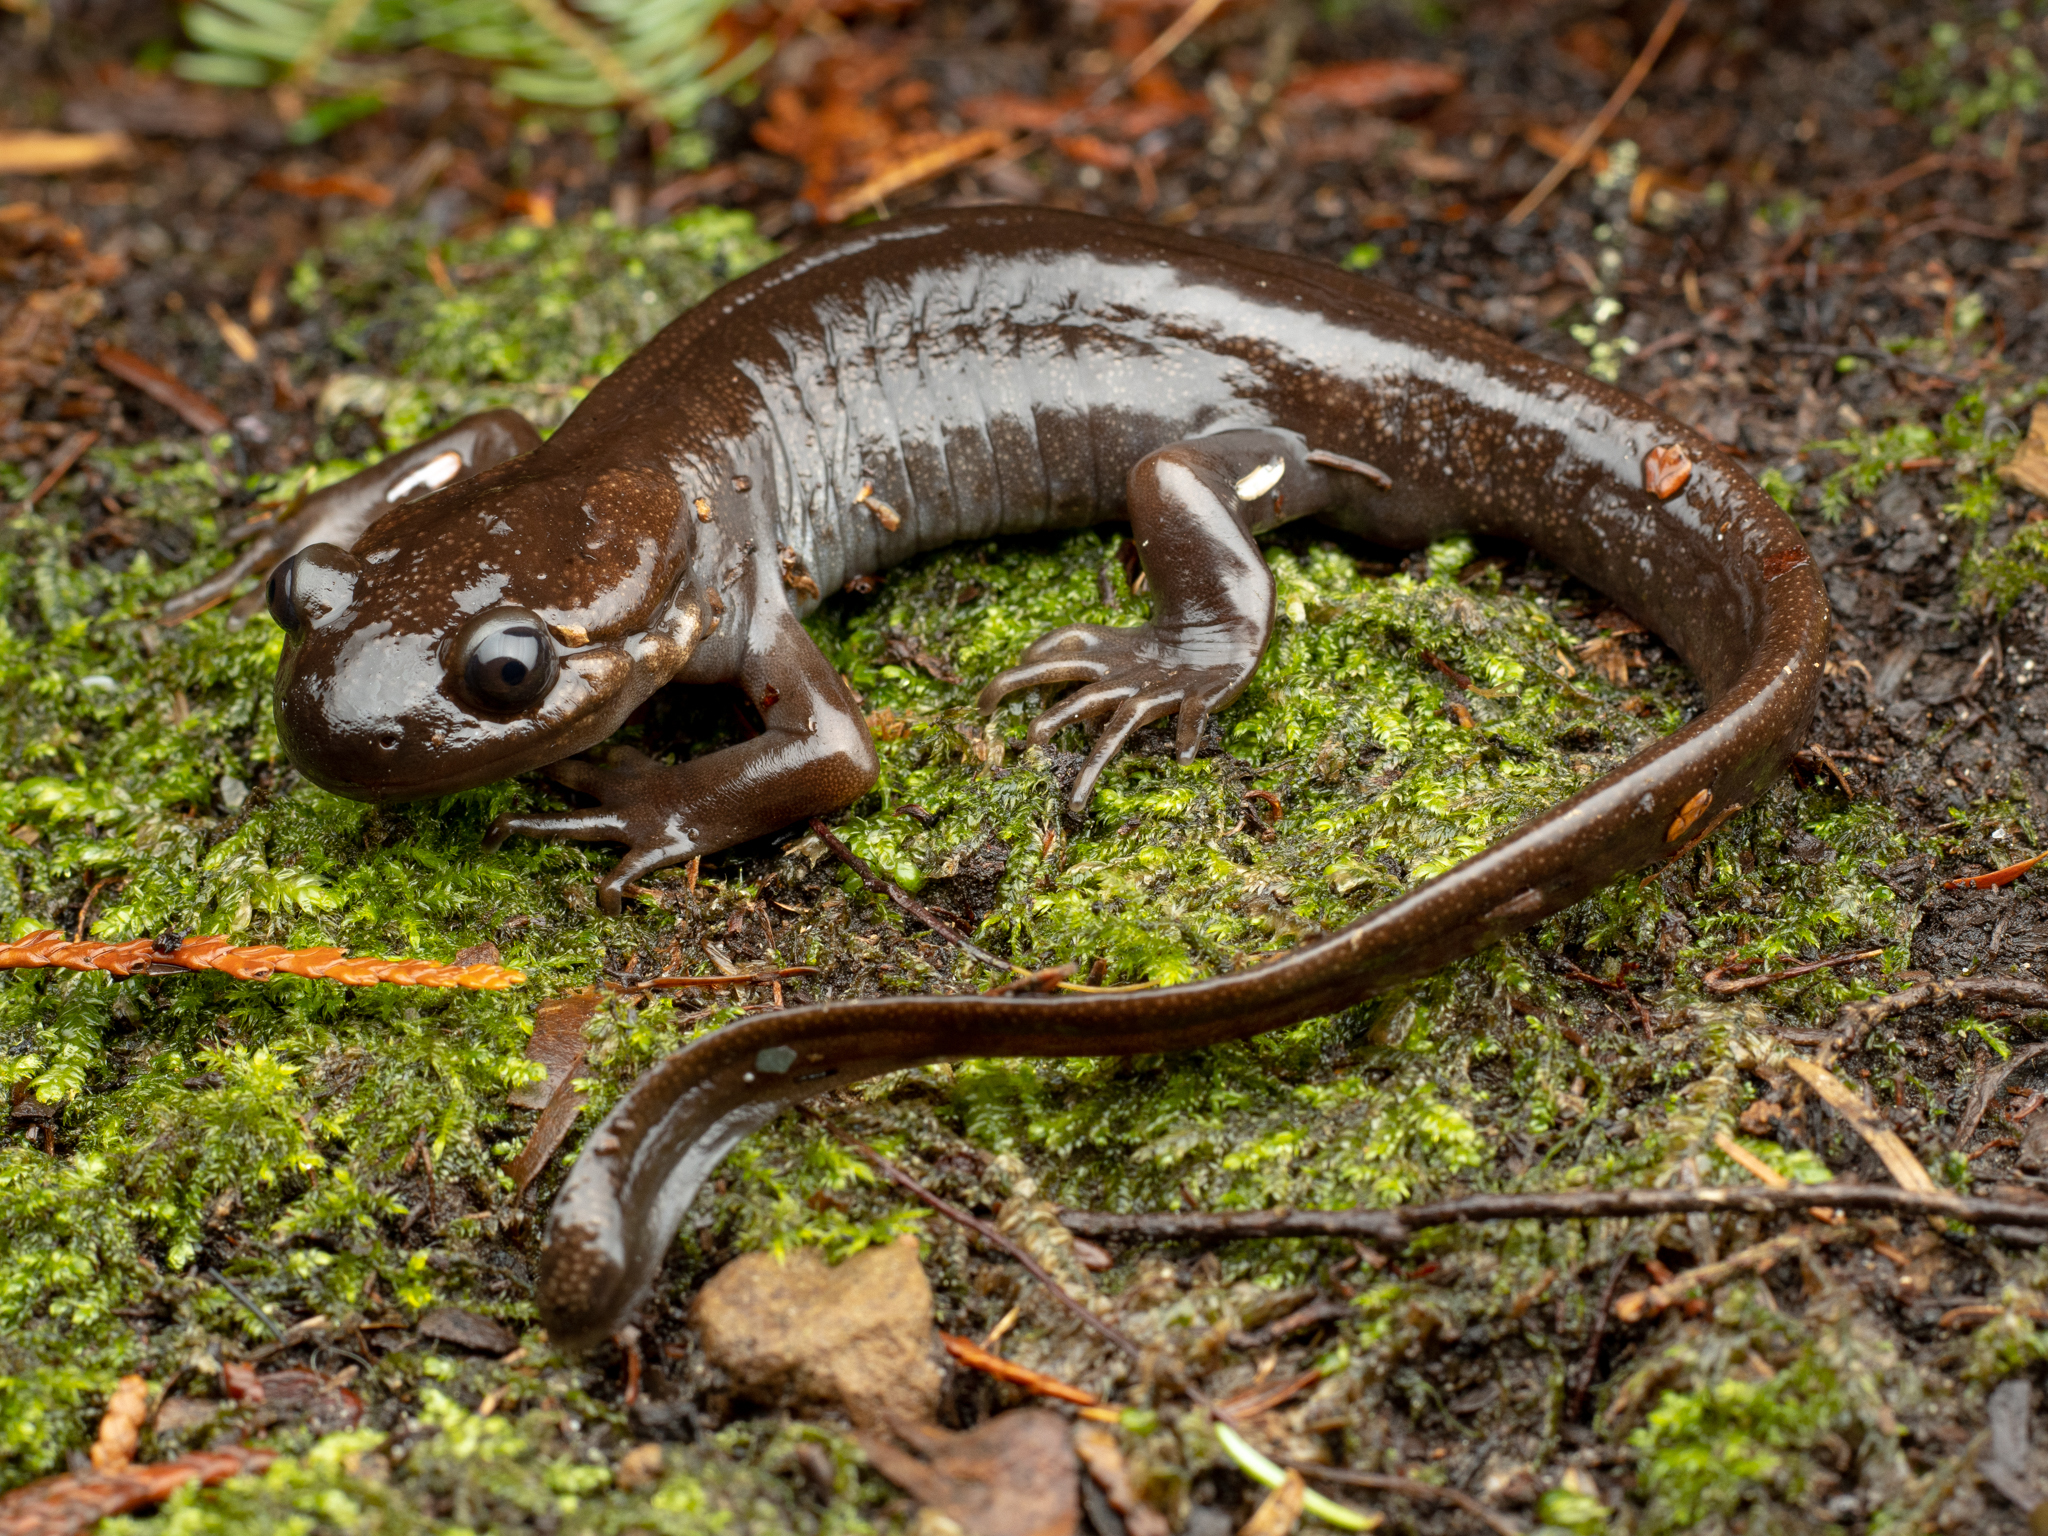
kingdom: Animalia
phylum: Chordata
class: Amphibia
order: Caudata
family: Ambystomatidae
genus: Ambystoma
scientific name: Ambystoma gracile
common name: Northwestern salamander
